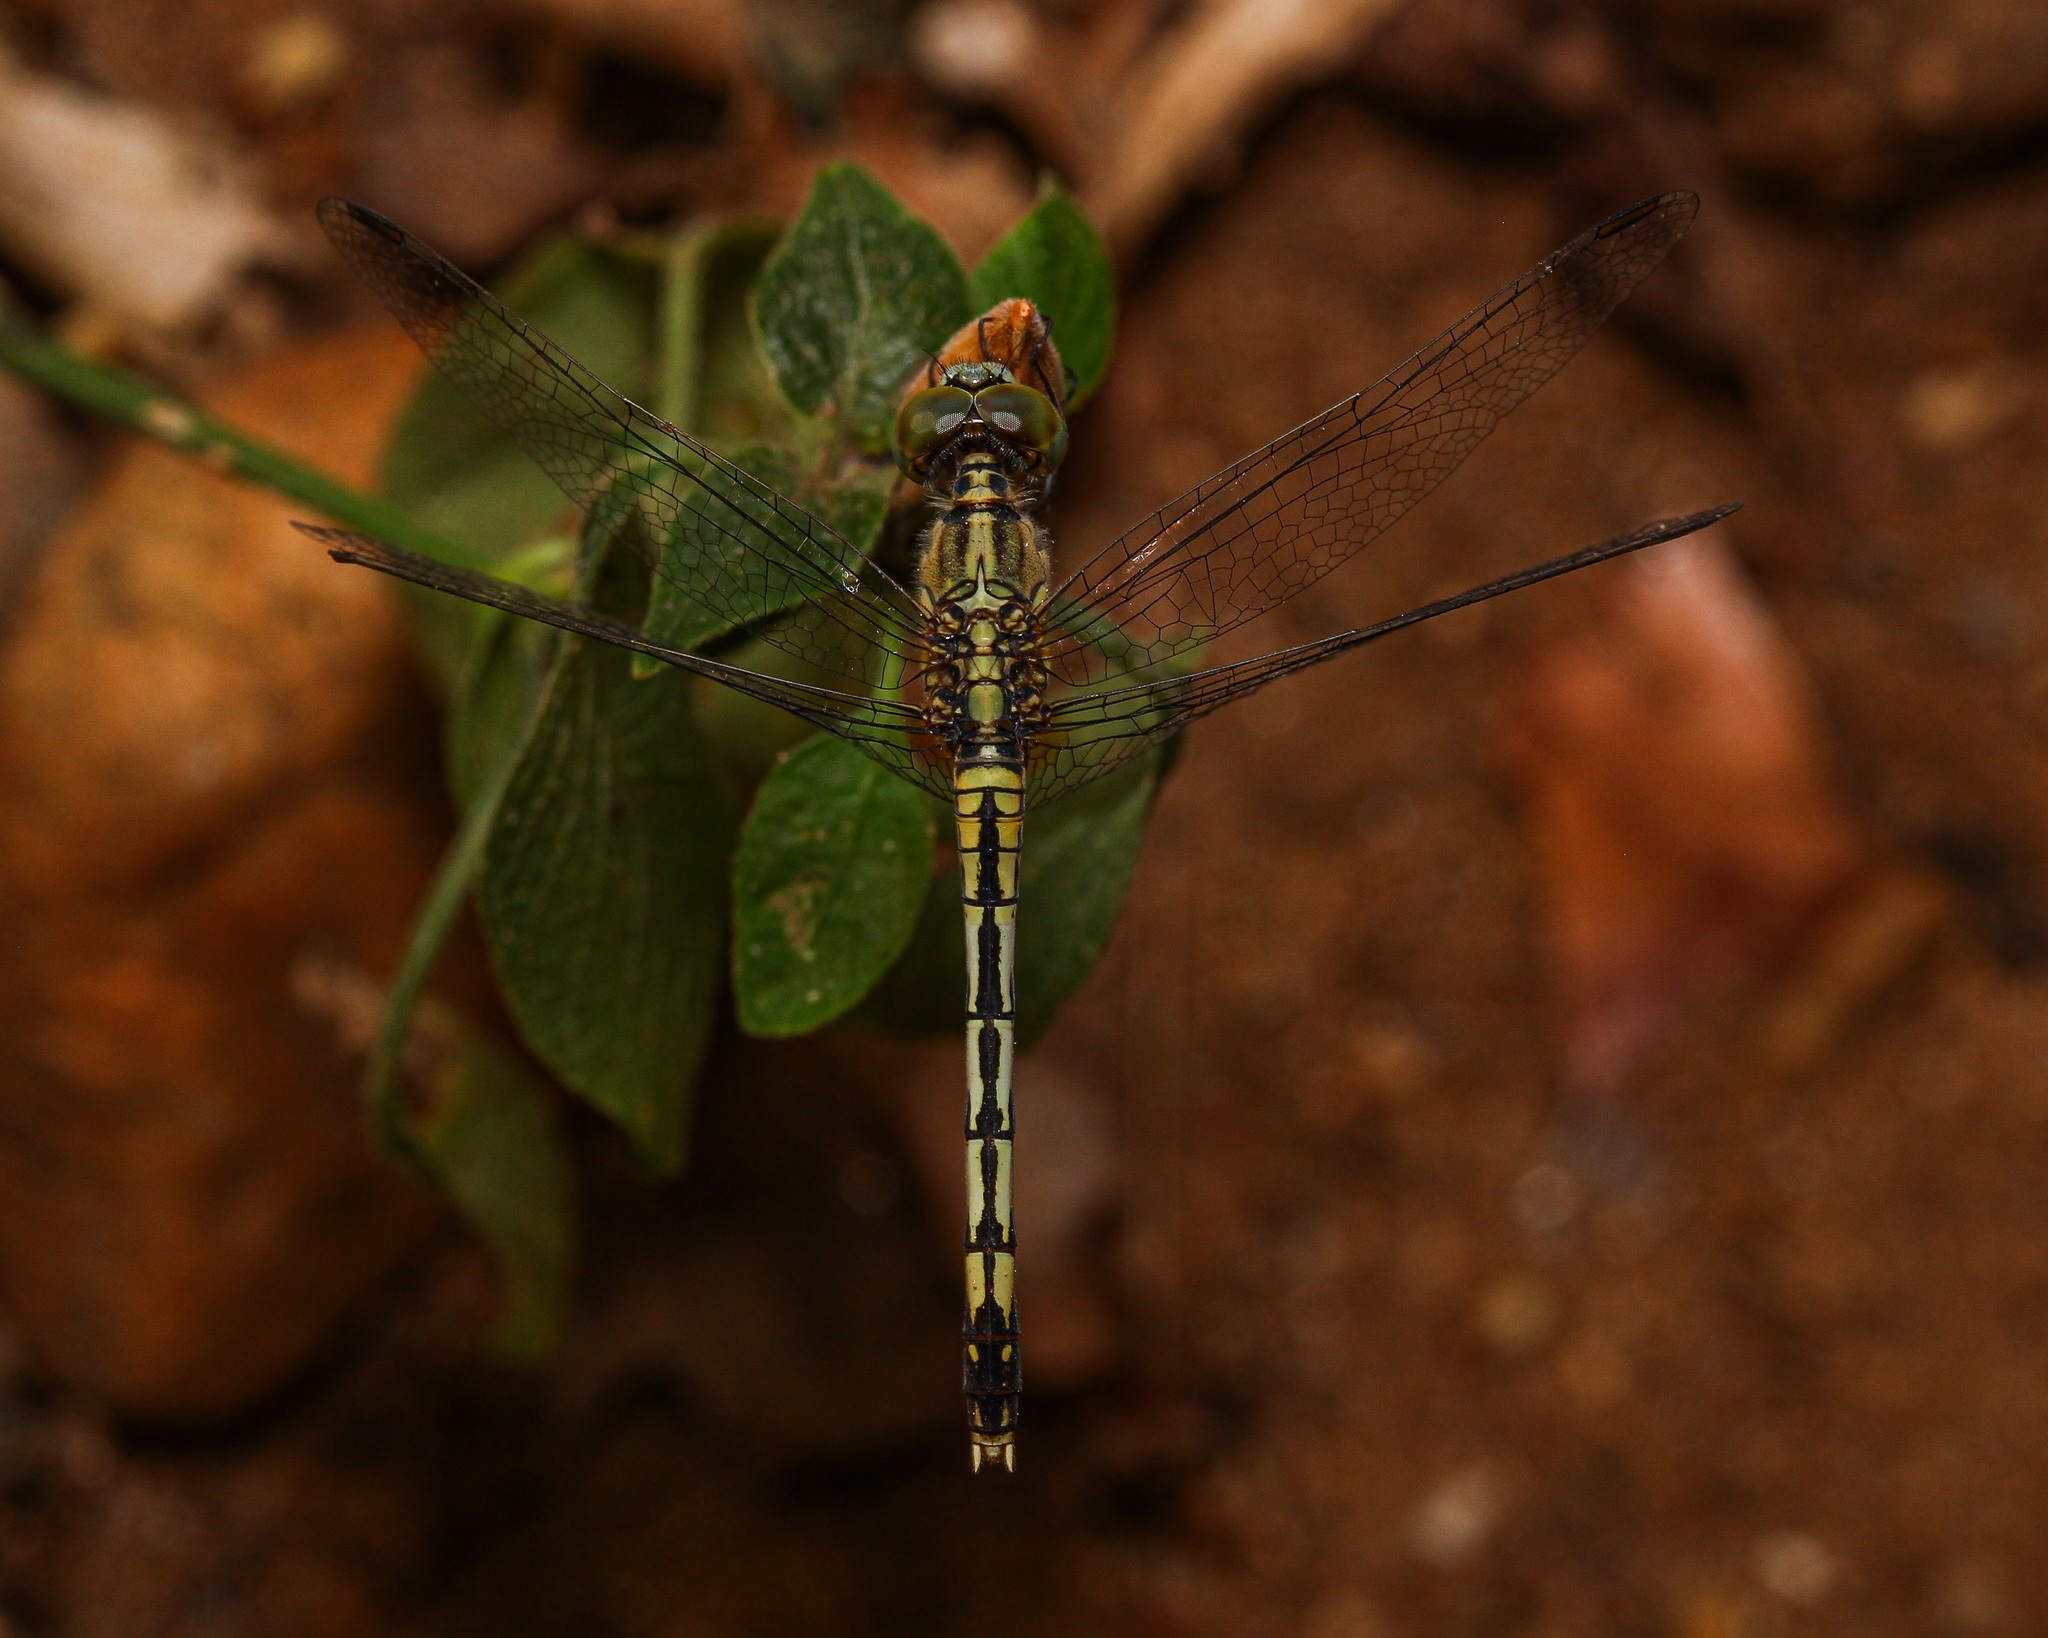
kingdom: Animalia
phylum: Arthropoda
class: Insecta
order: Odonata
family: Libellulidae
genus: Diplacodes
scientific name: Diplacodes trivialis
